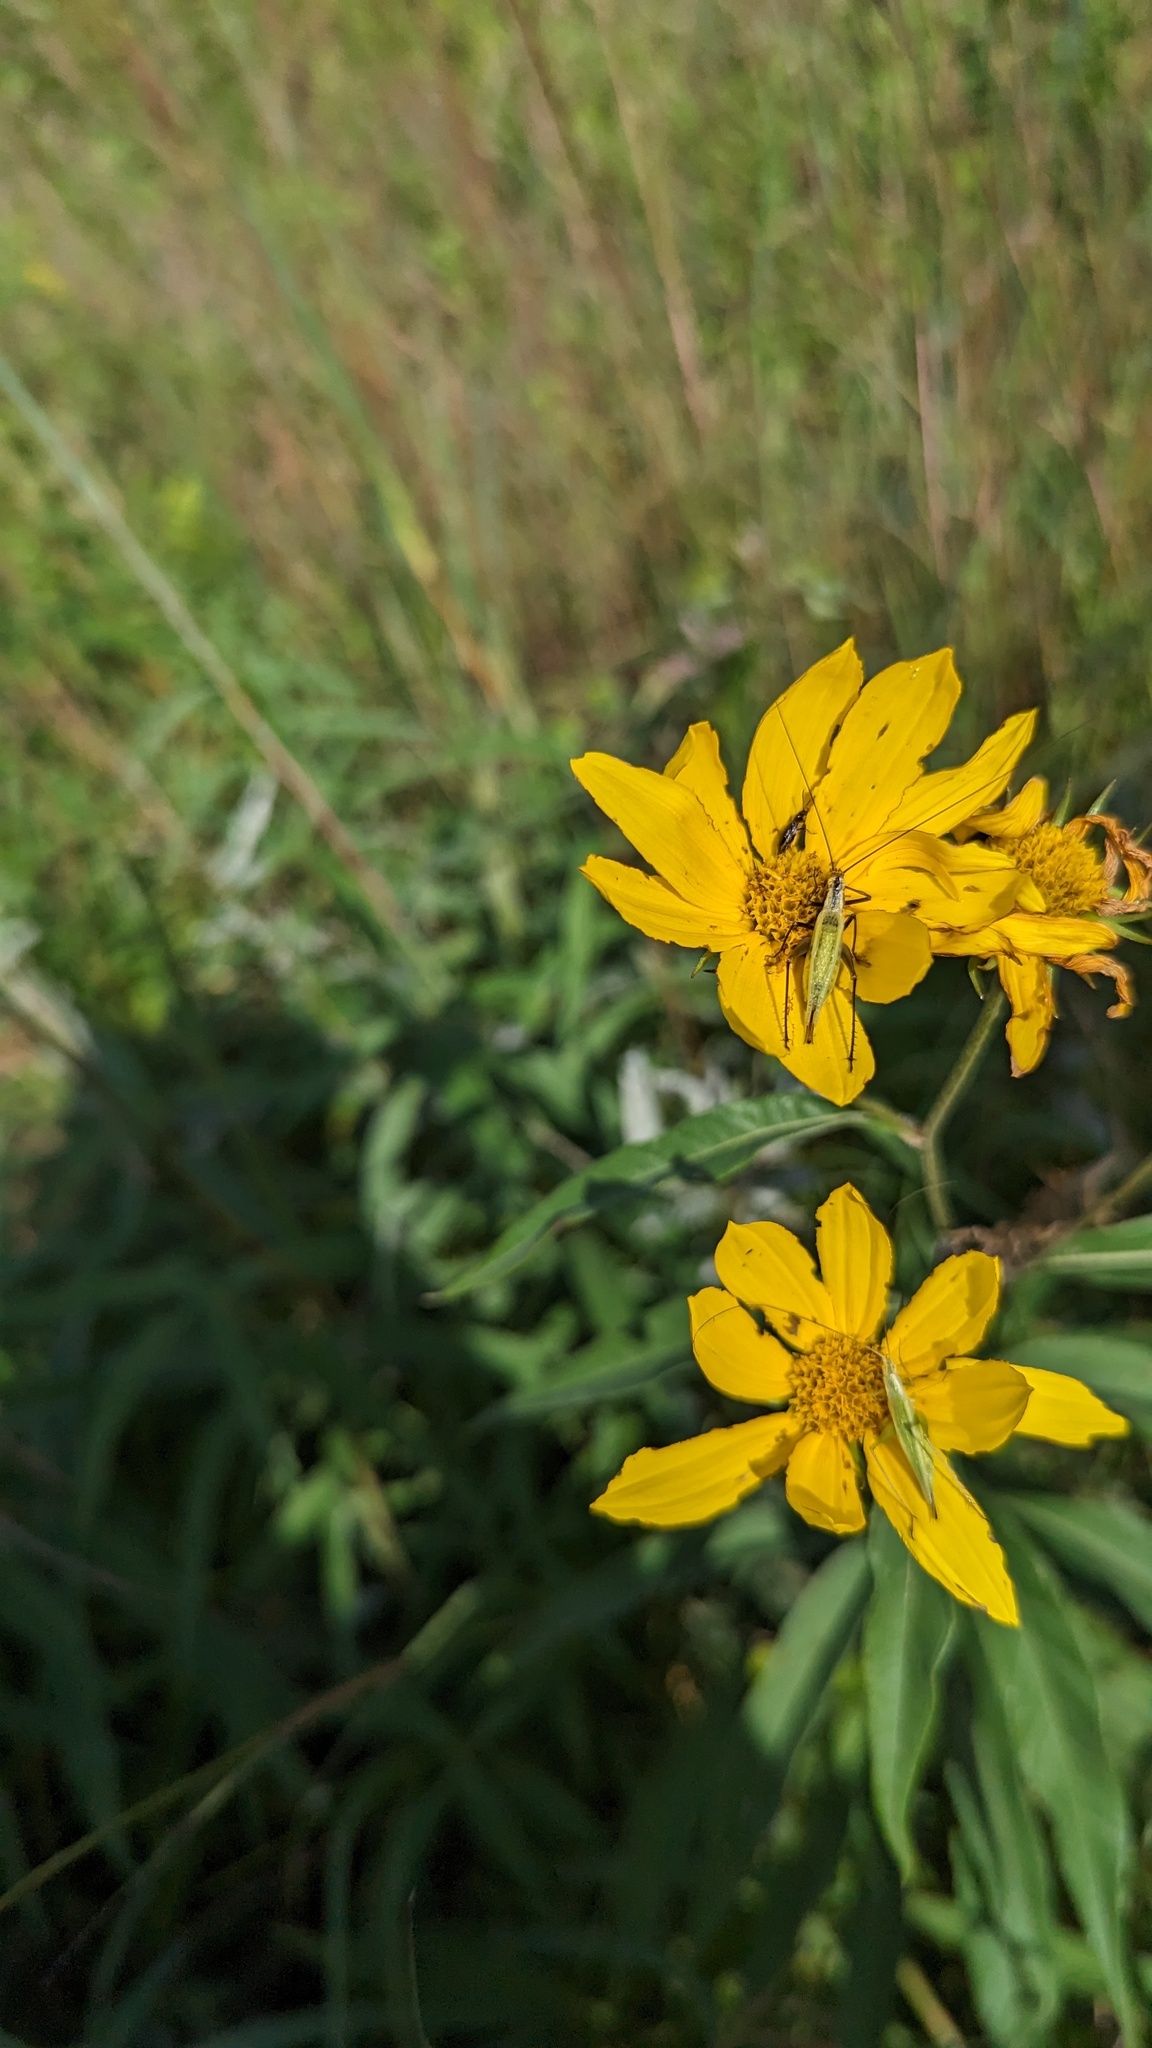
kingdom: Animalia
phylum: Arthropoda
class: Insecta
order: Orthoptera
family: Gryllidae
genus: Oecanthus
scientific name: Oecanthus
